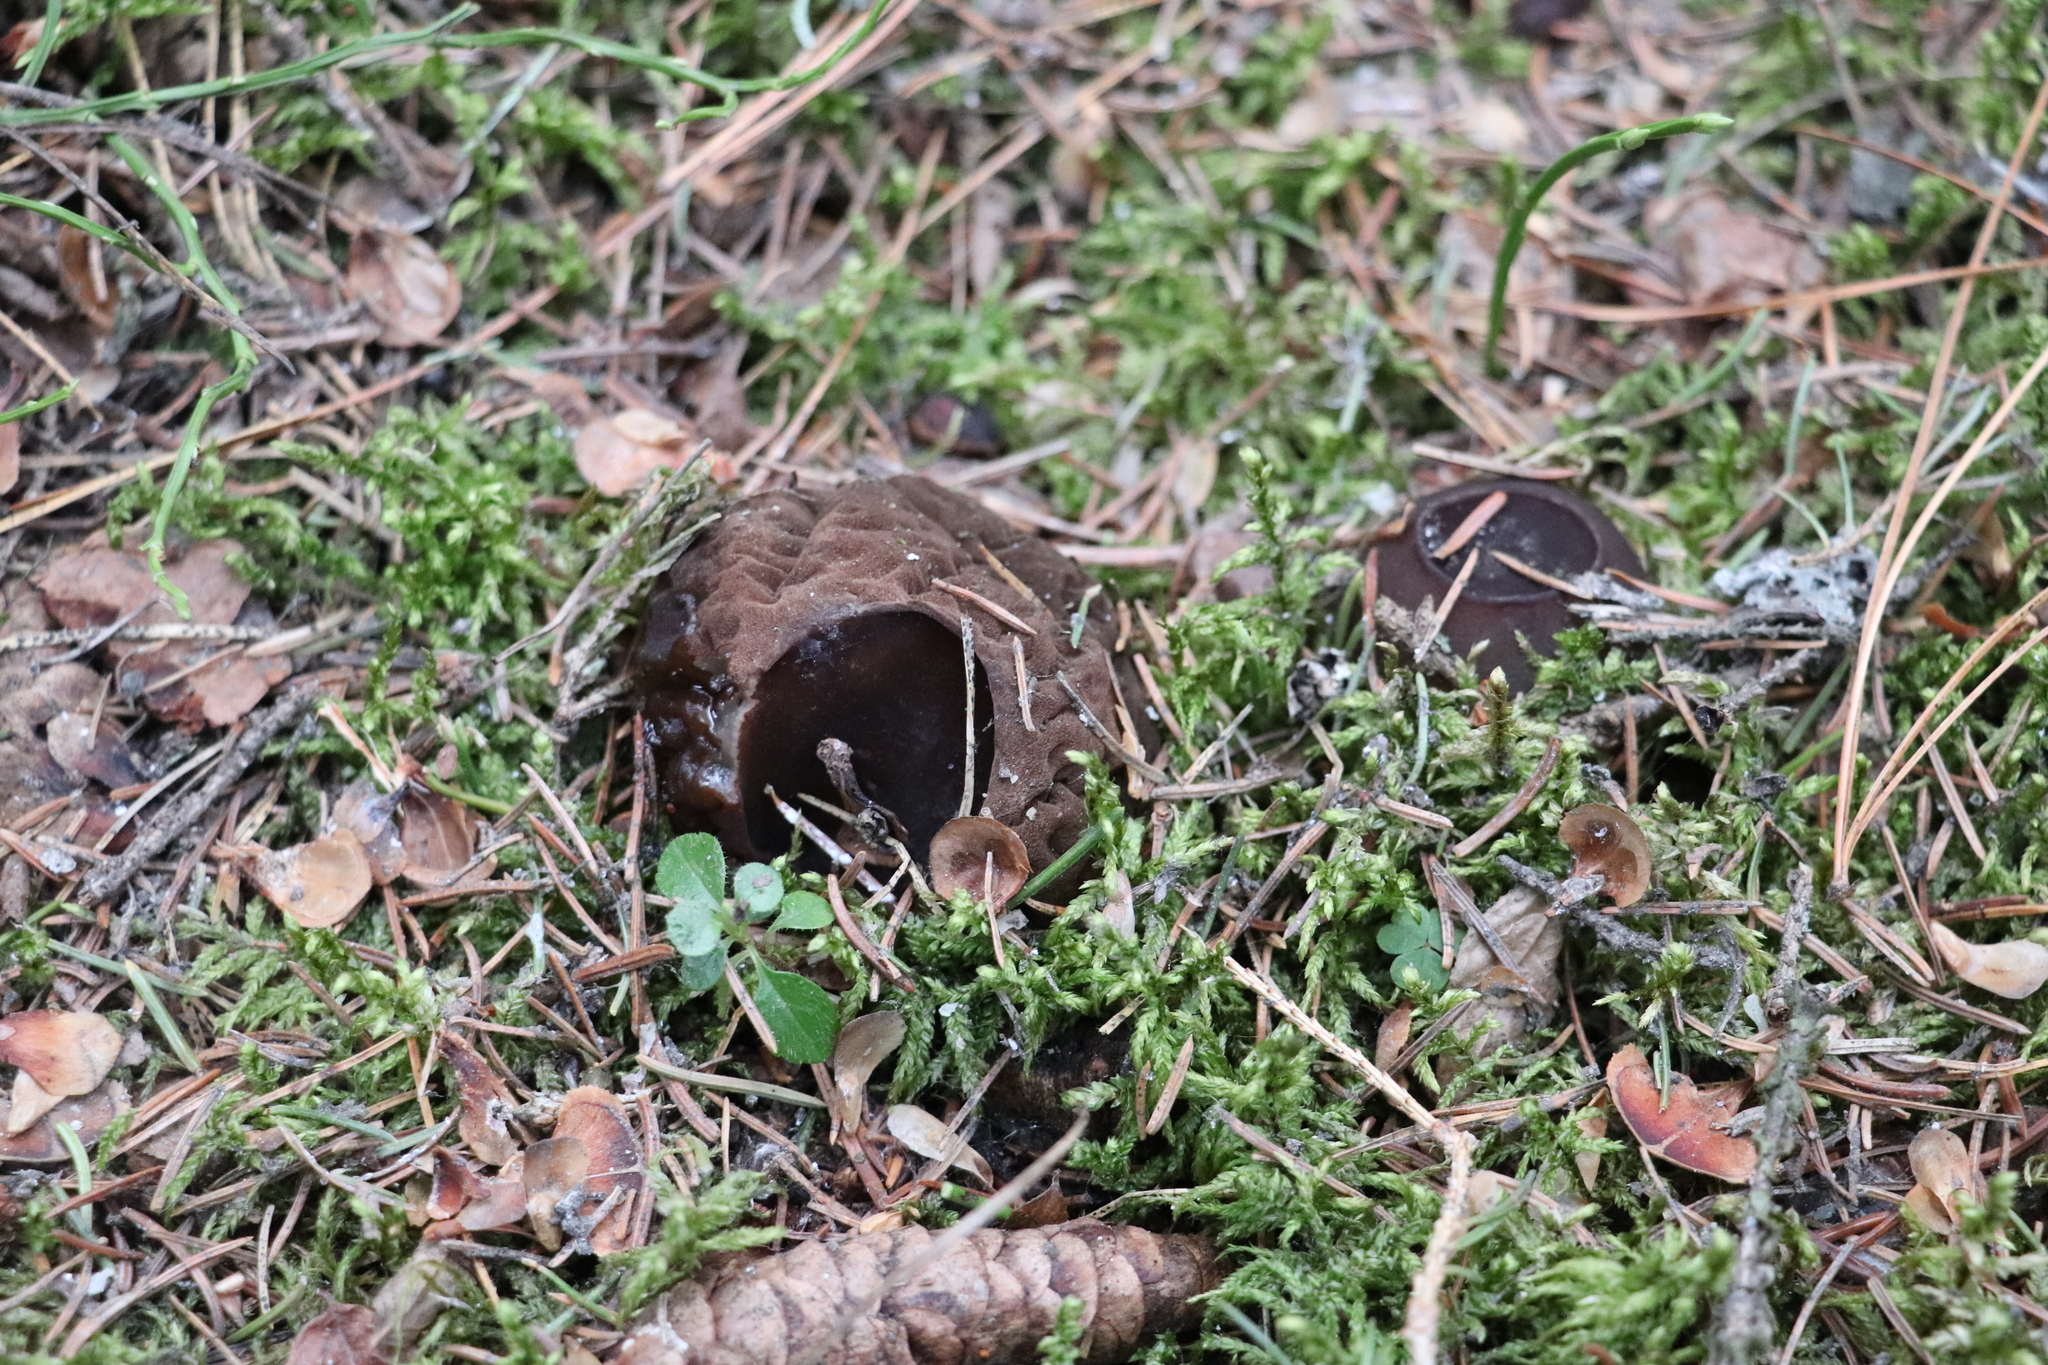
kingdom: Fungi
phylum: Ascomycota
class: Pezizomycetes
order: Pezizales
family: Sarcosomataceae
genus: Sarcosoma
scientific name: Sarcosoma globosum
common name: Charred-pancake cup
